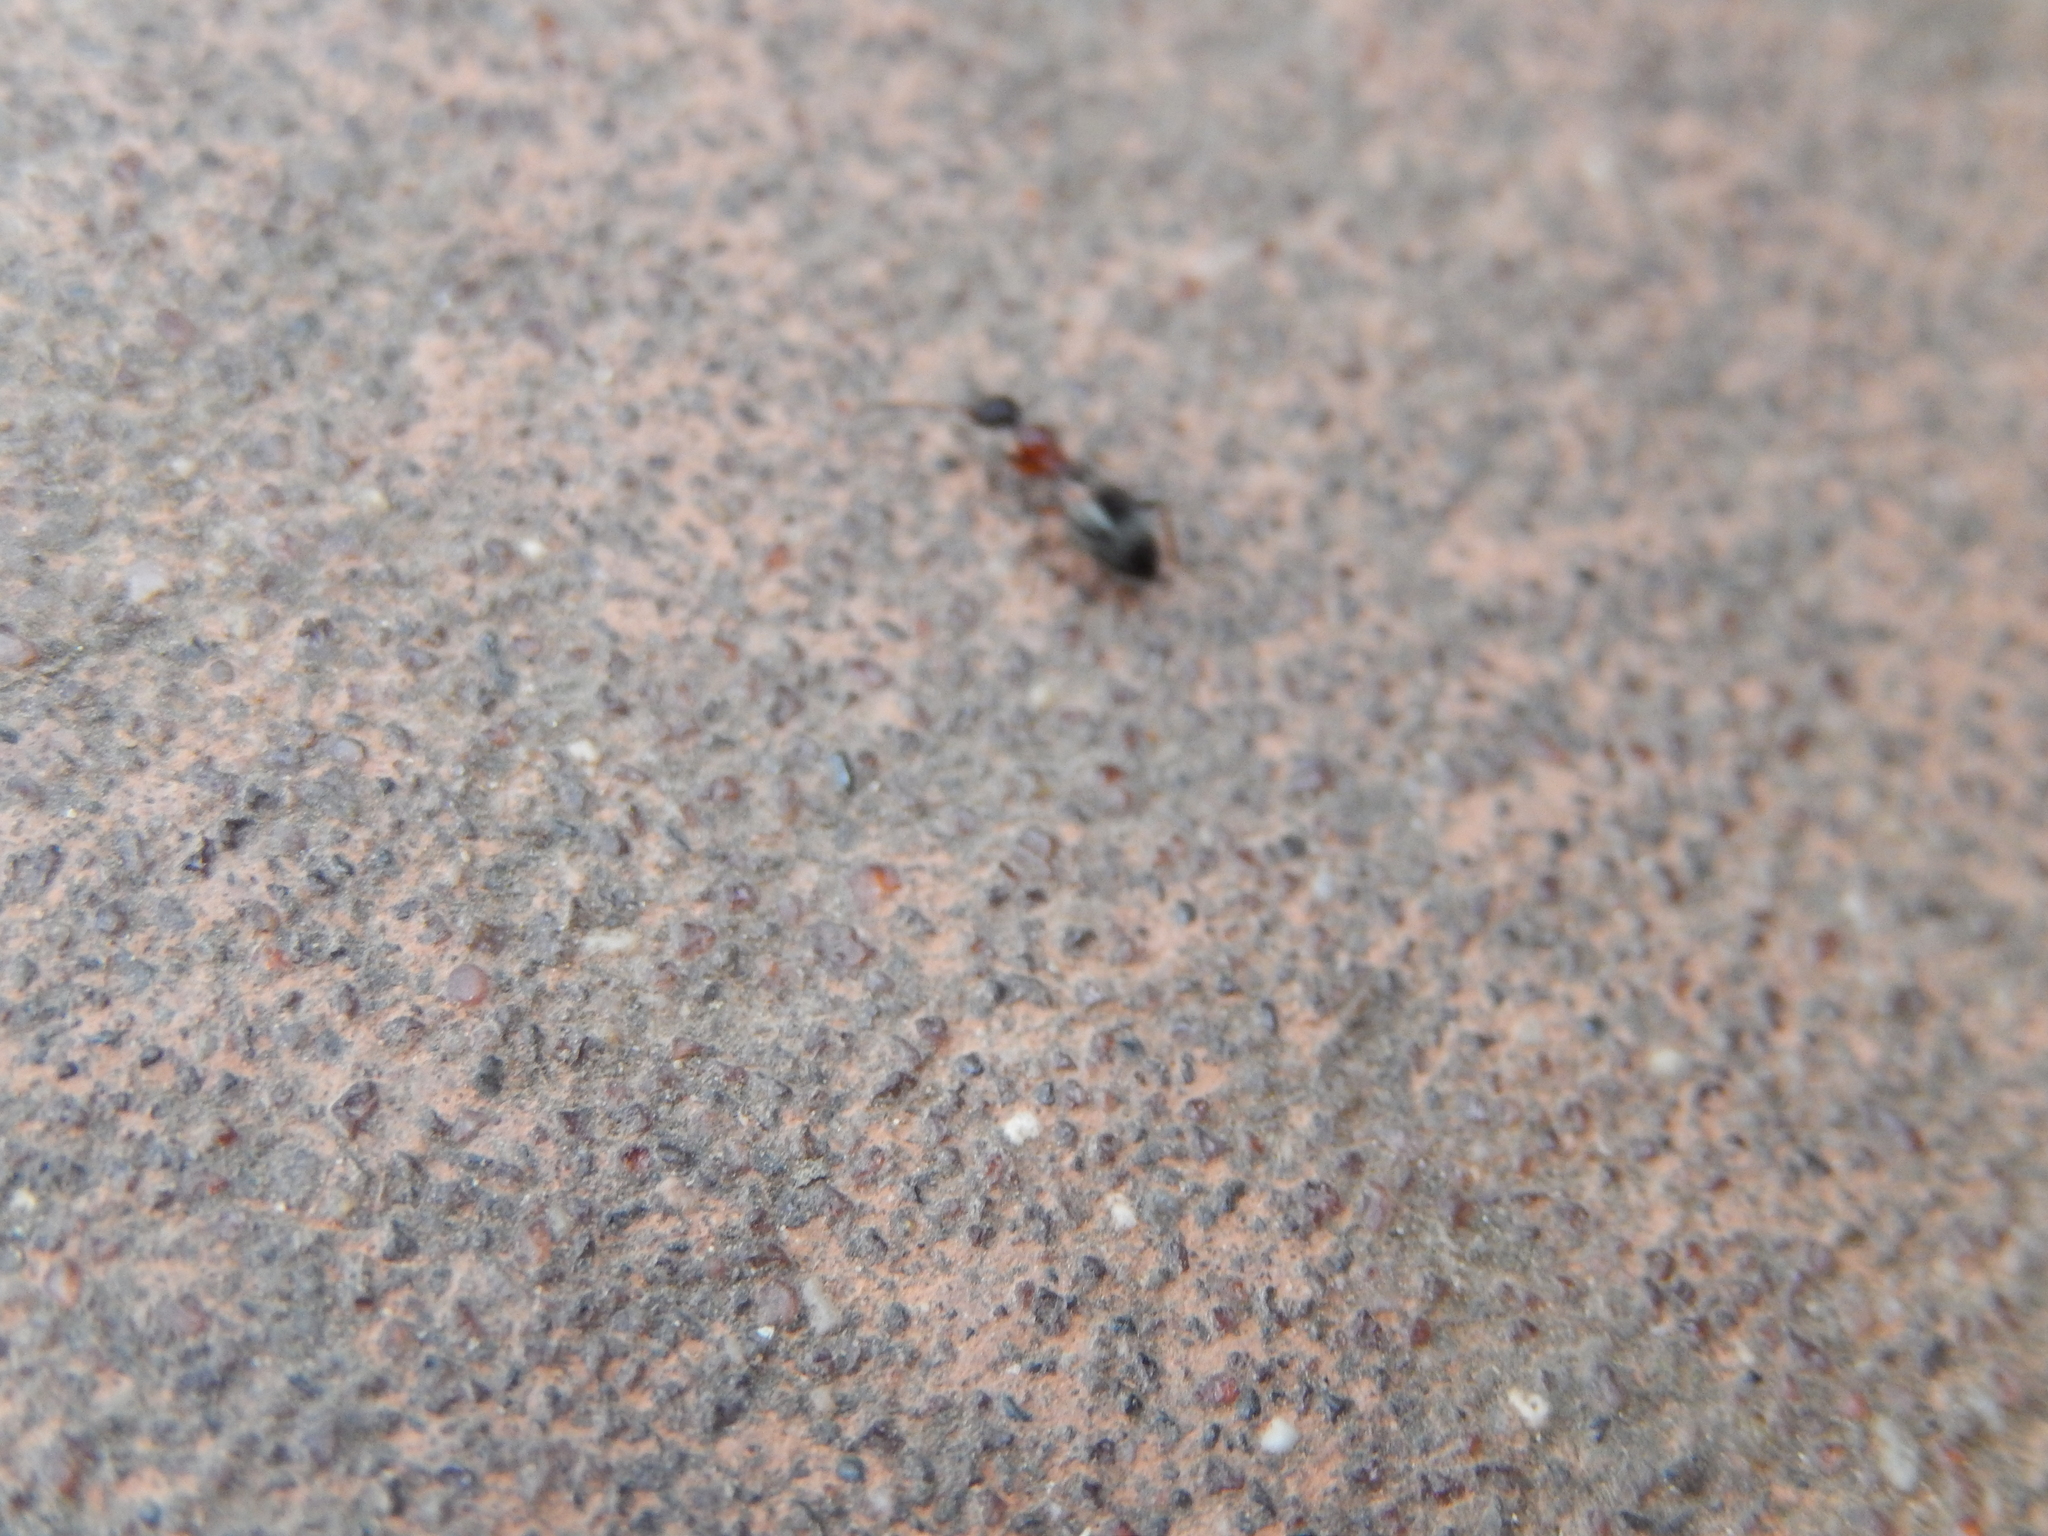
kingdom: Animalia
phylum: Arthropoda
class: Insecta
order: Coleoptera
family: Anthicidae
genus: Anthelephila
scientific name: Anthelephila pedestris
